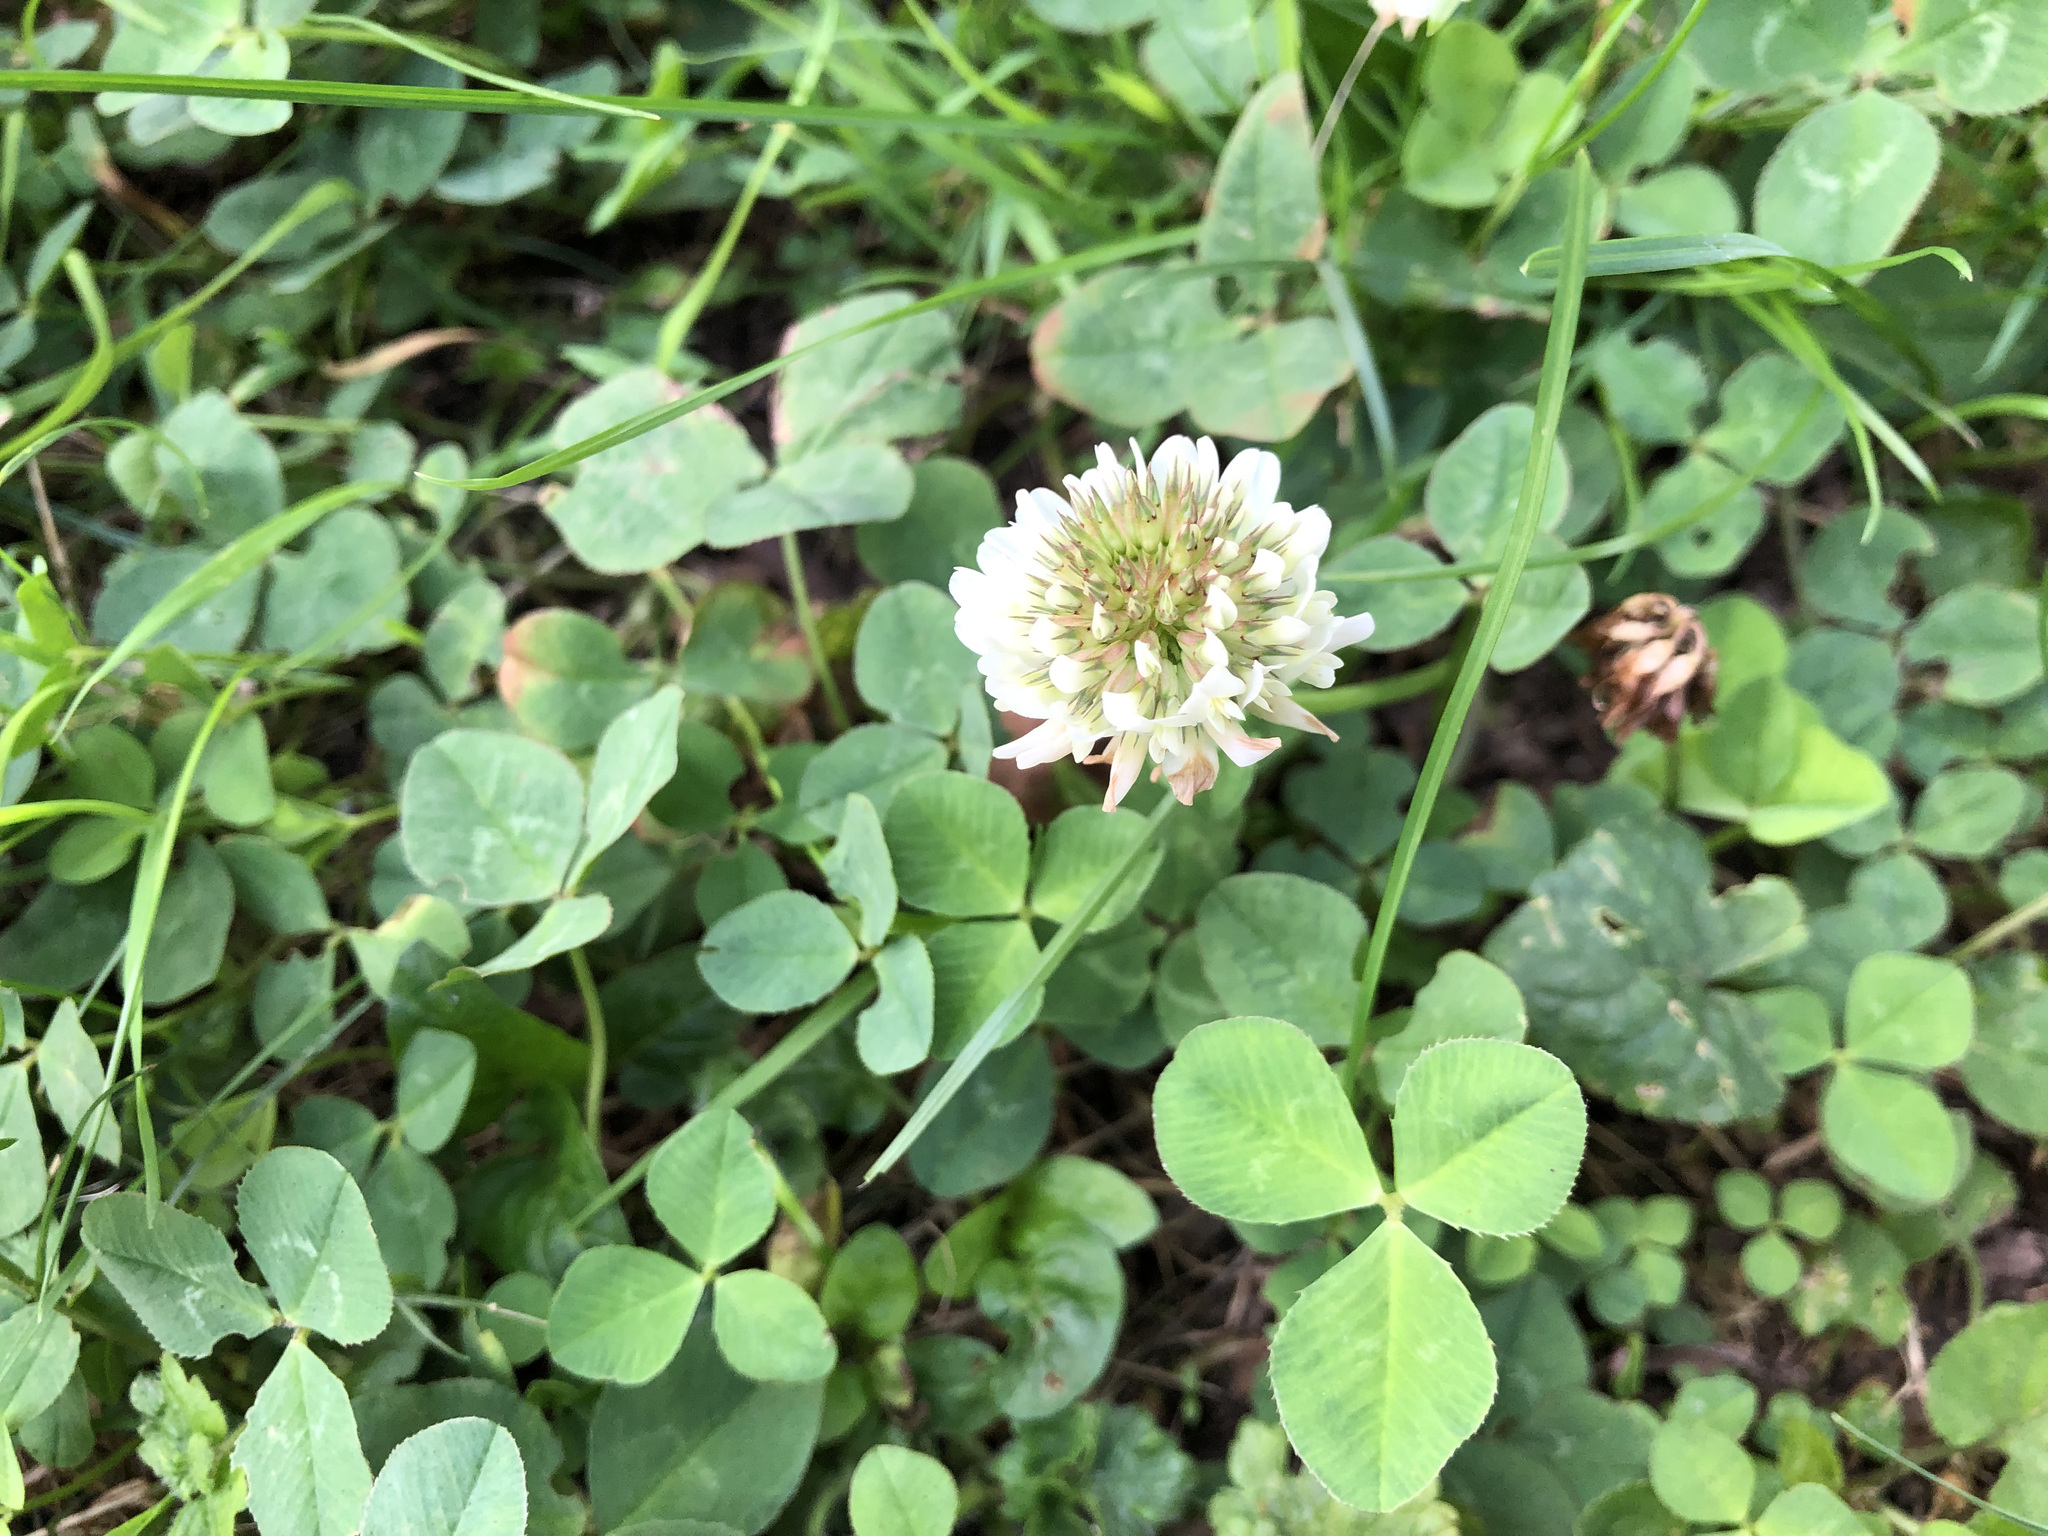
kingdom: Plantae
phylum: Tracheophyta
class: Magnoliopsida
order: Fabales
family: Fabaceae
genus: Trifolium
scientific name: Trifolium repens
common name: White clover
